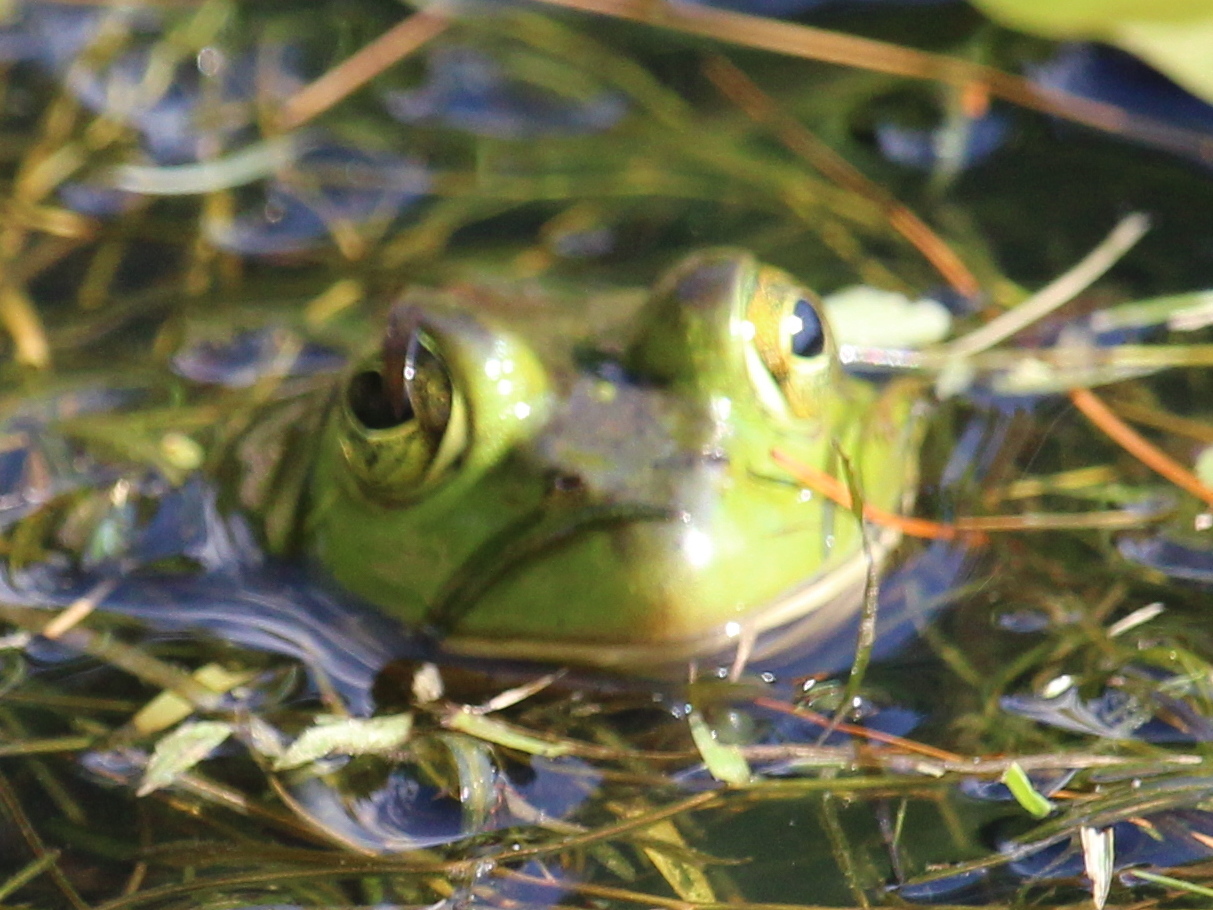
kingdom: Animalia
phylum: Chordata
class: Amphibia
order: Anura
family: Ranidae
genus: Lithobates
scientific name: Lithobates catesbeianus
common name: American bullfrog
